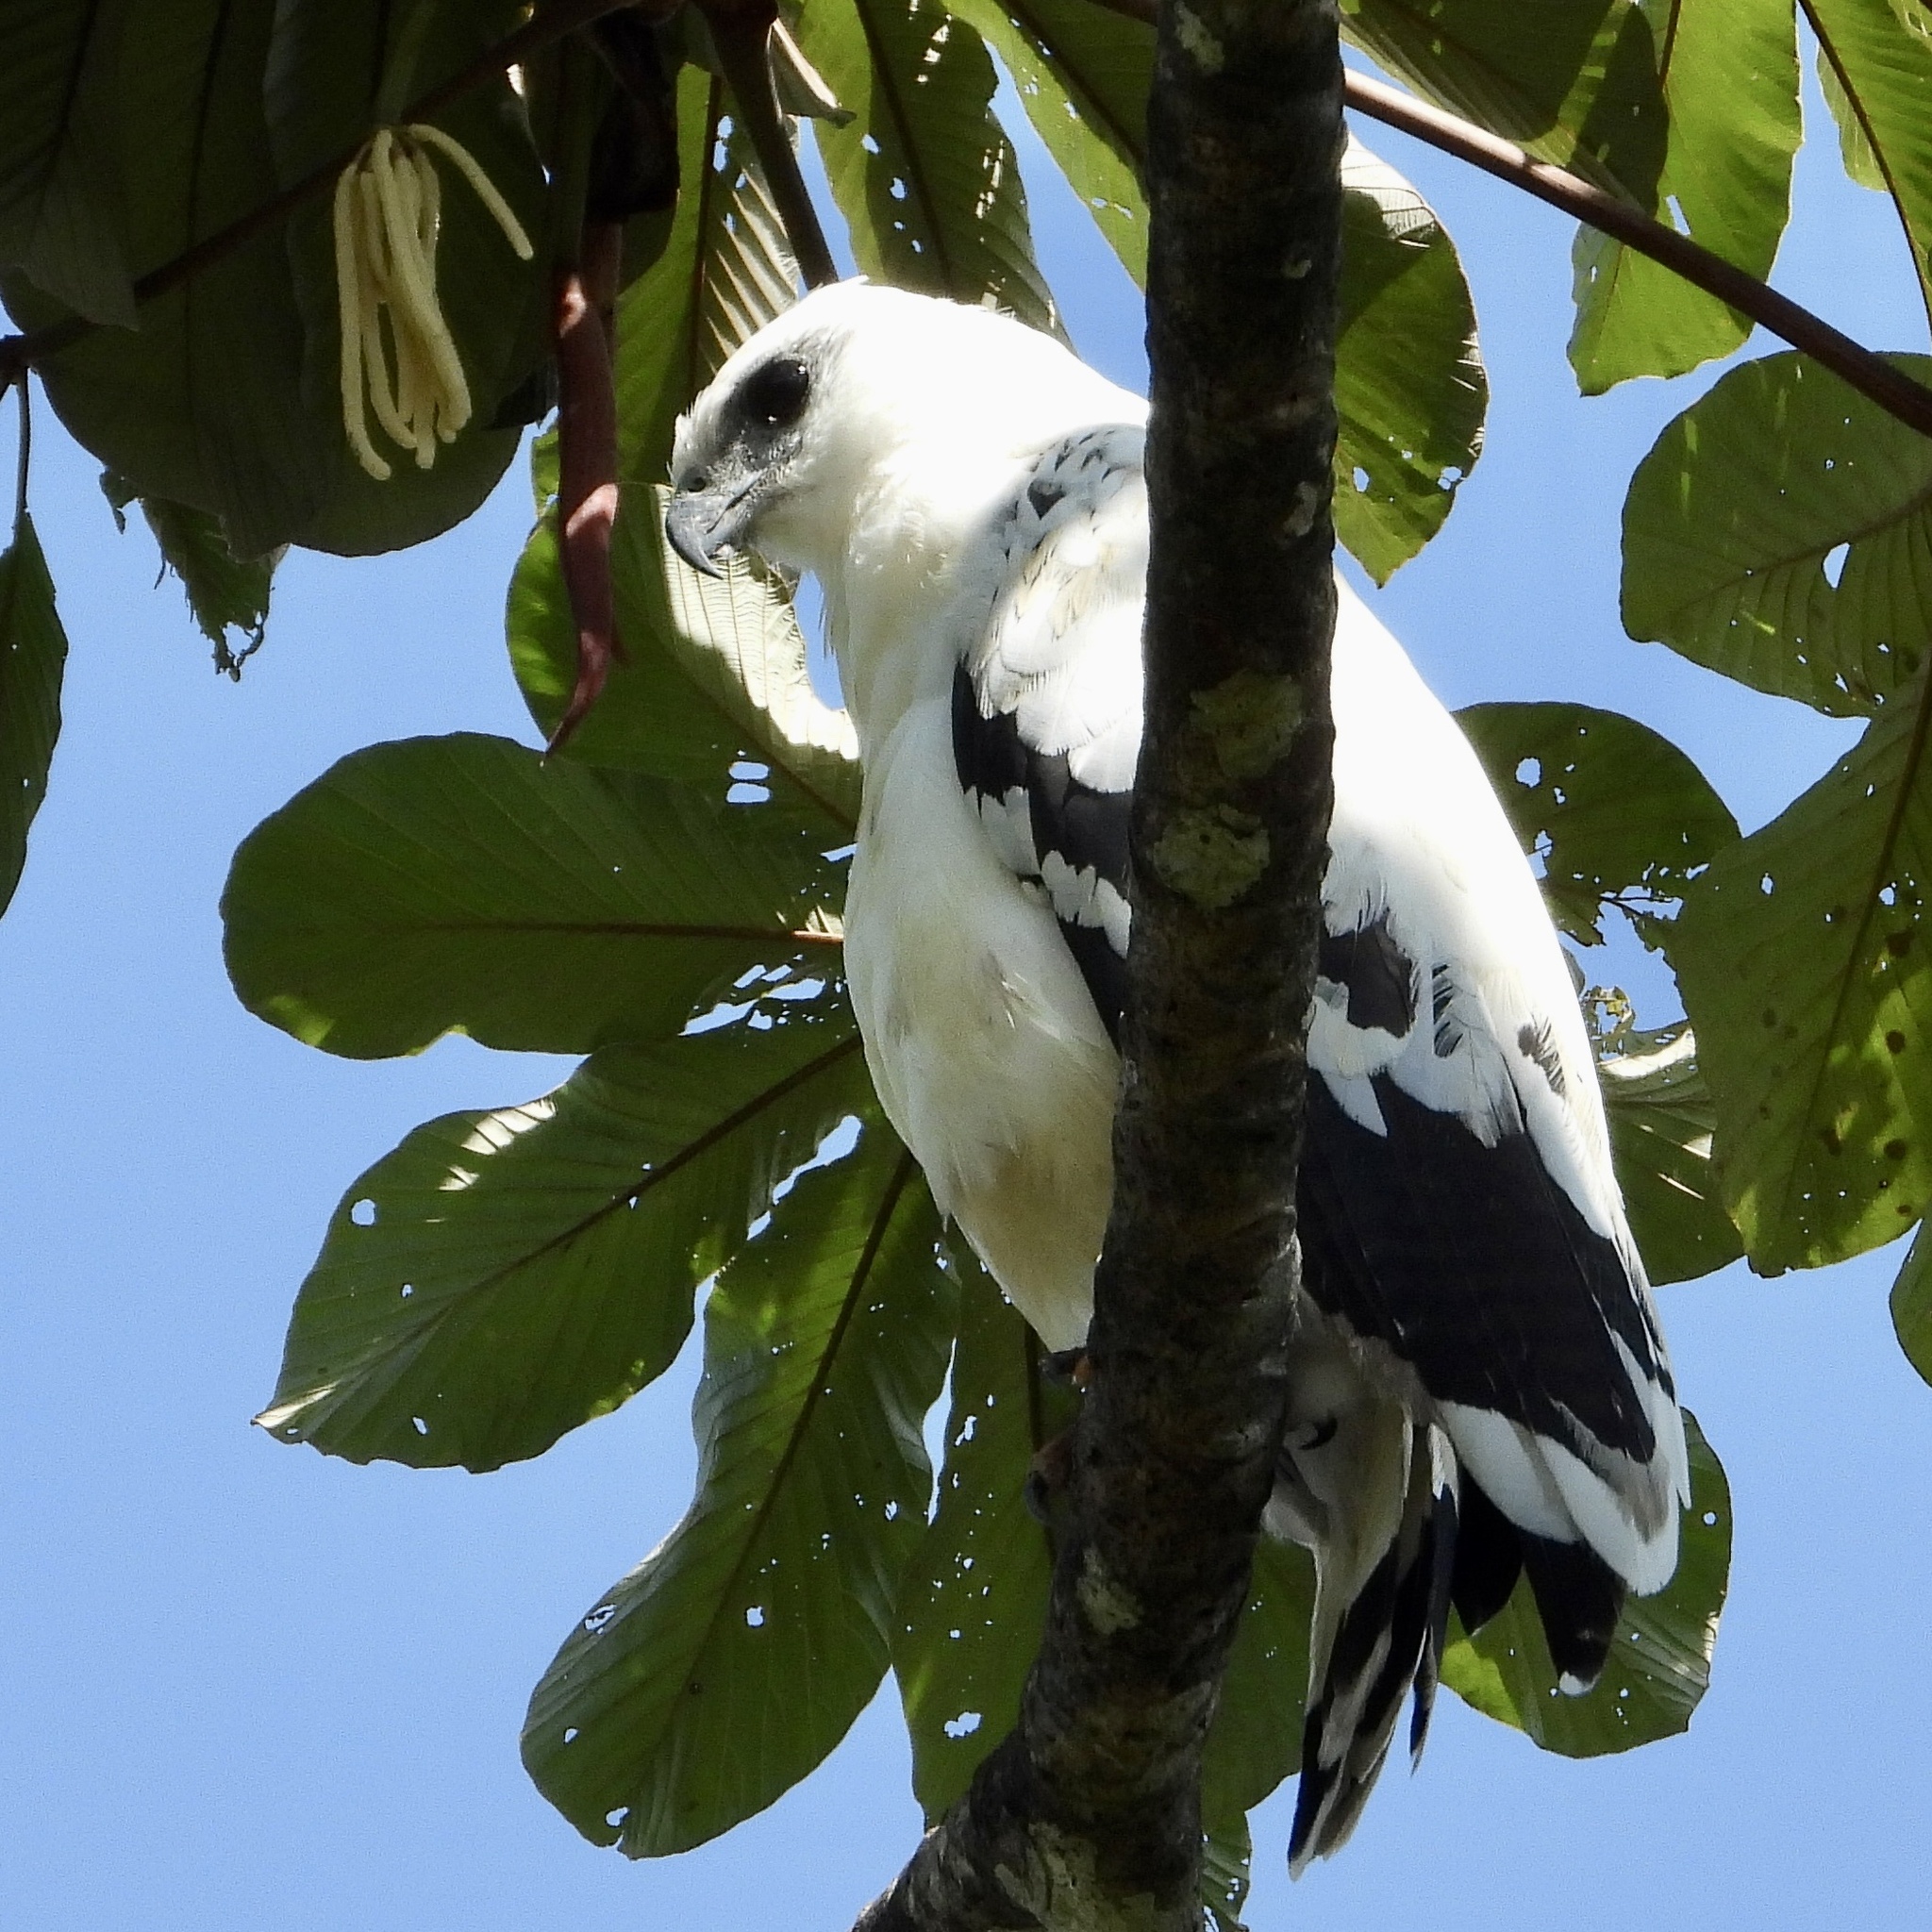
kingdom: Animalia
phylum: Chordata
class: Aves
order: Accipitriformes
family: Accipitridae
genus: Leucopternis
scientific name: Leucopternis albicollis
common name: White hawk
